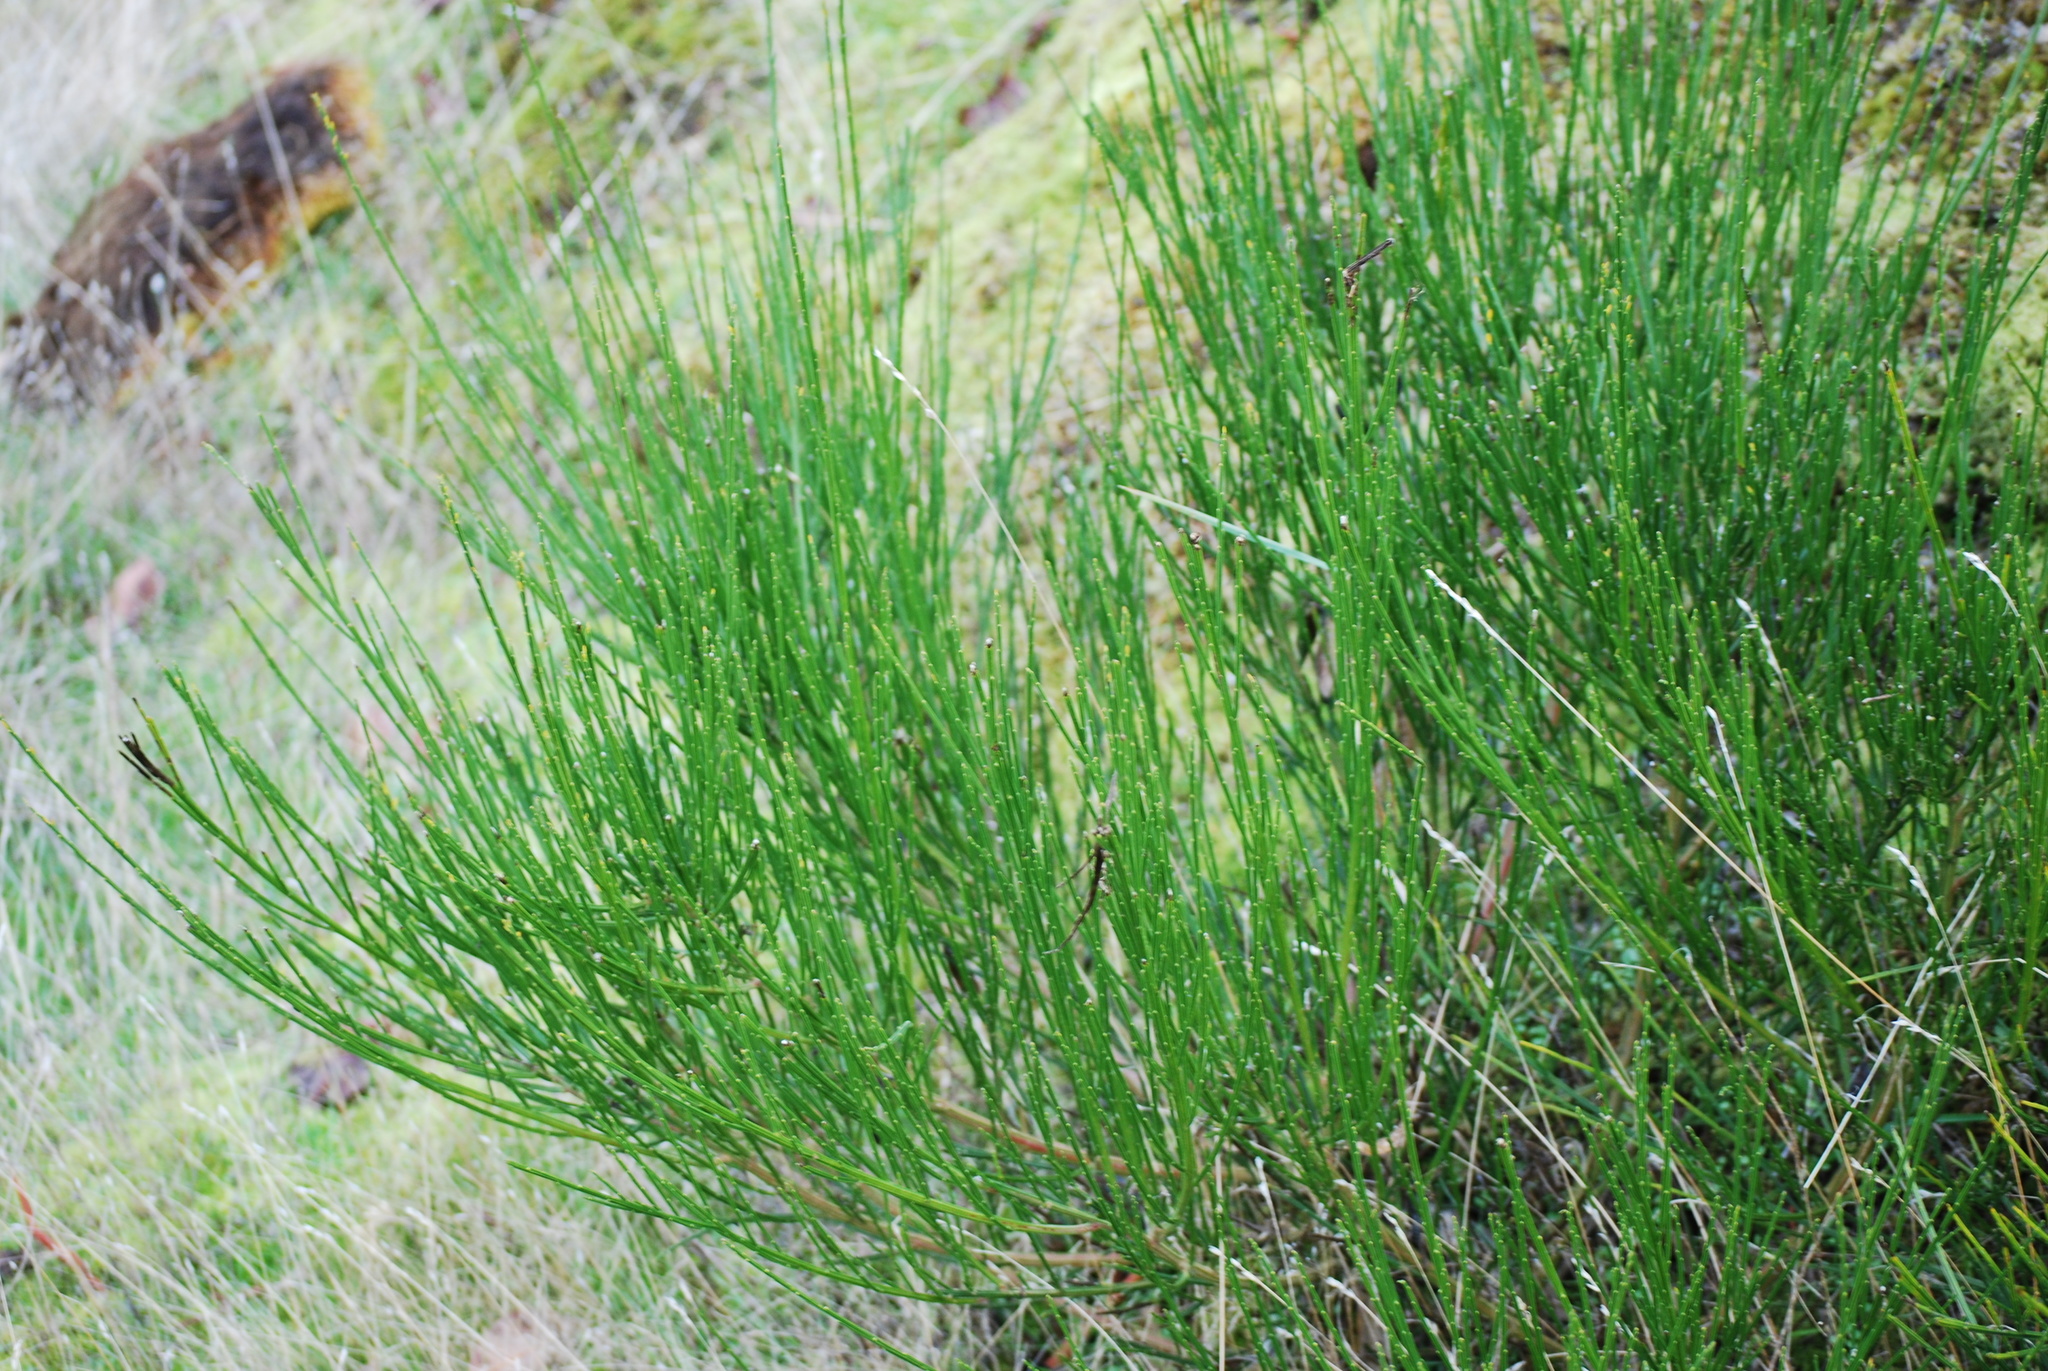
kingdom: Plantae
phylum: Tracheophyta
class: Magnoliopsida
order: Fabales
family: Fabaceae
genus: Cytisus
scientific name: Cytisus scoparius
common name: Scotch broom
